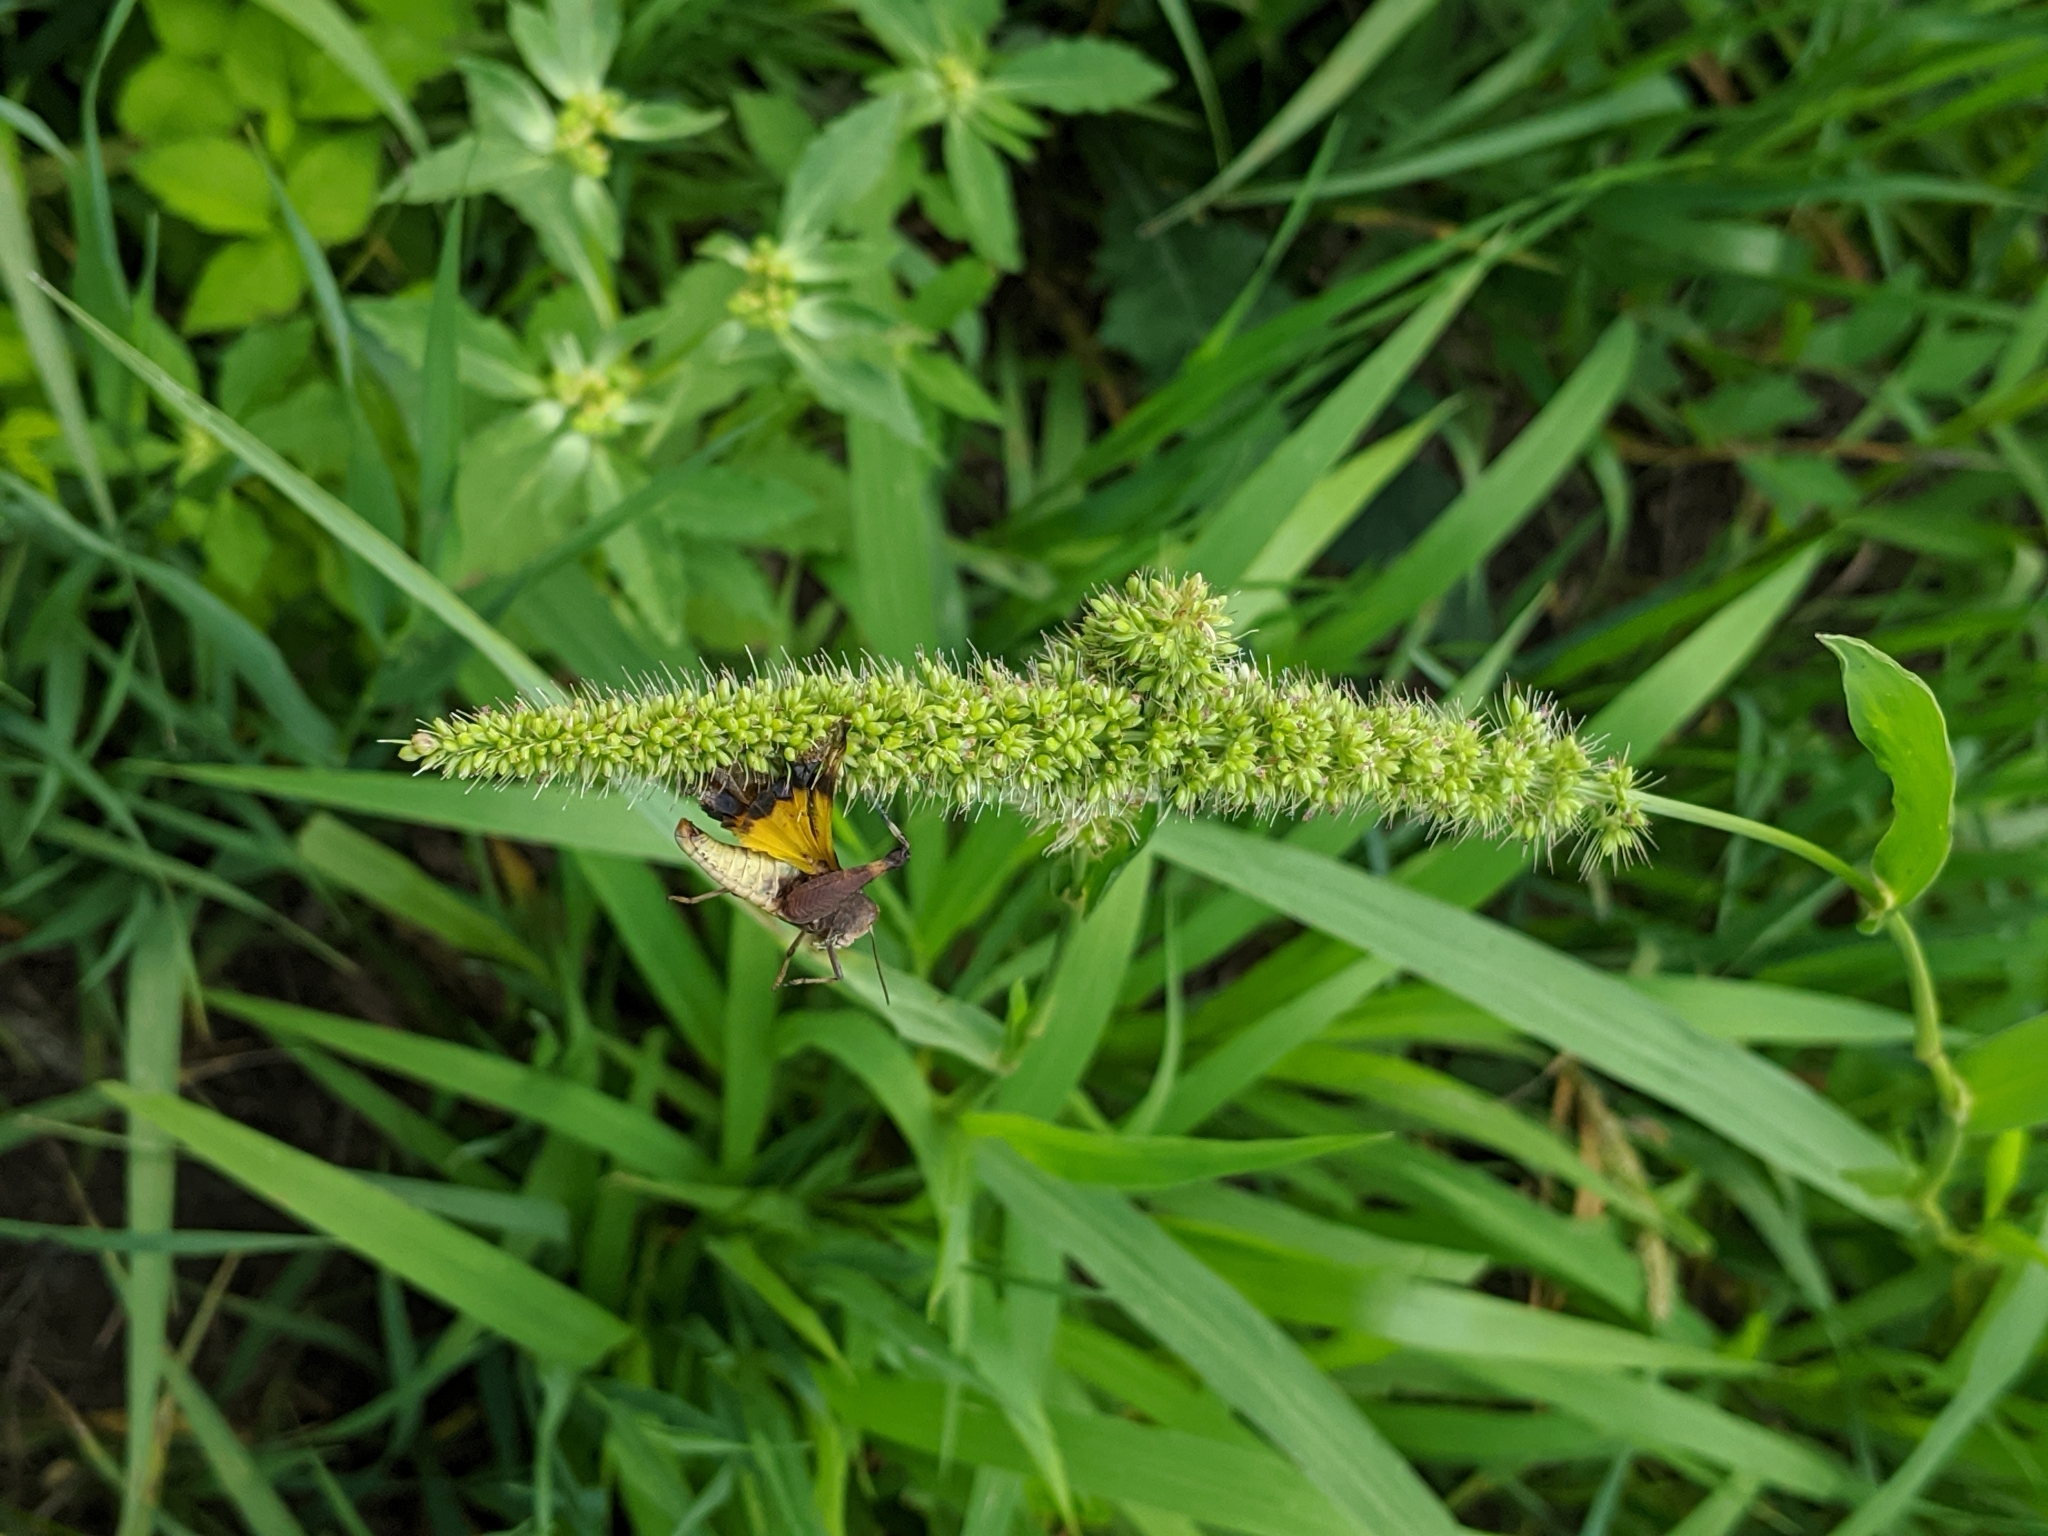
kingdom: Plantae
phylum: Tracheophyta
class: Liliopsida
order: Poales
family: Poaceae
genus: Setaria
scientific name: Setaria verticillata
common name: Hooked bristlegrass
